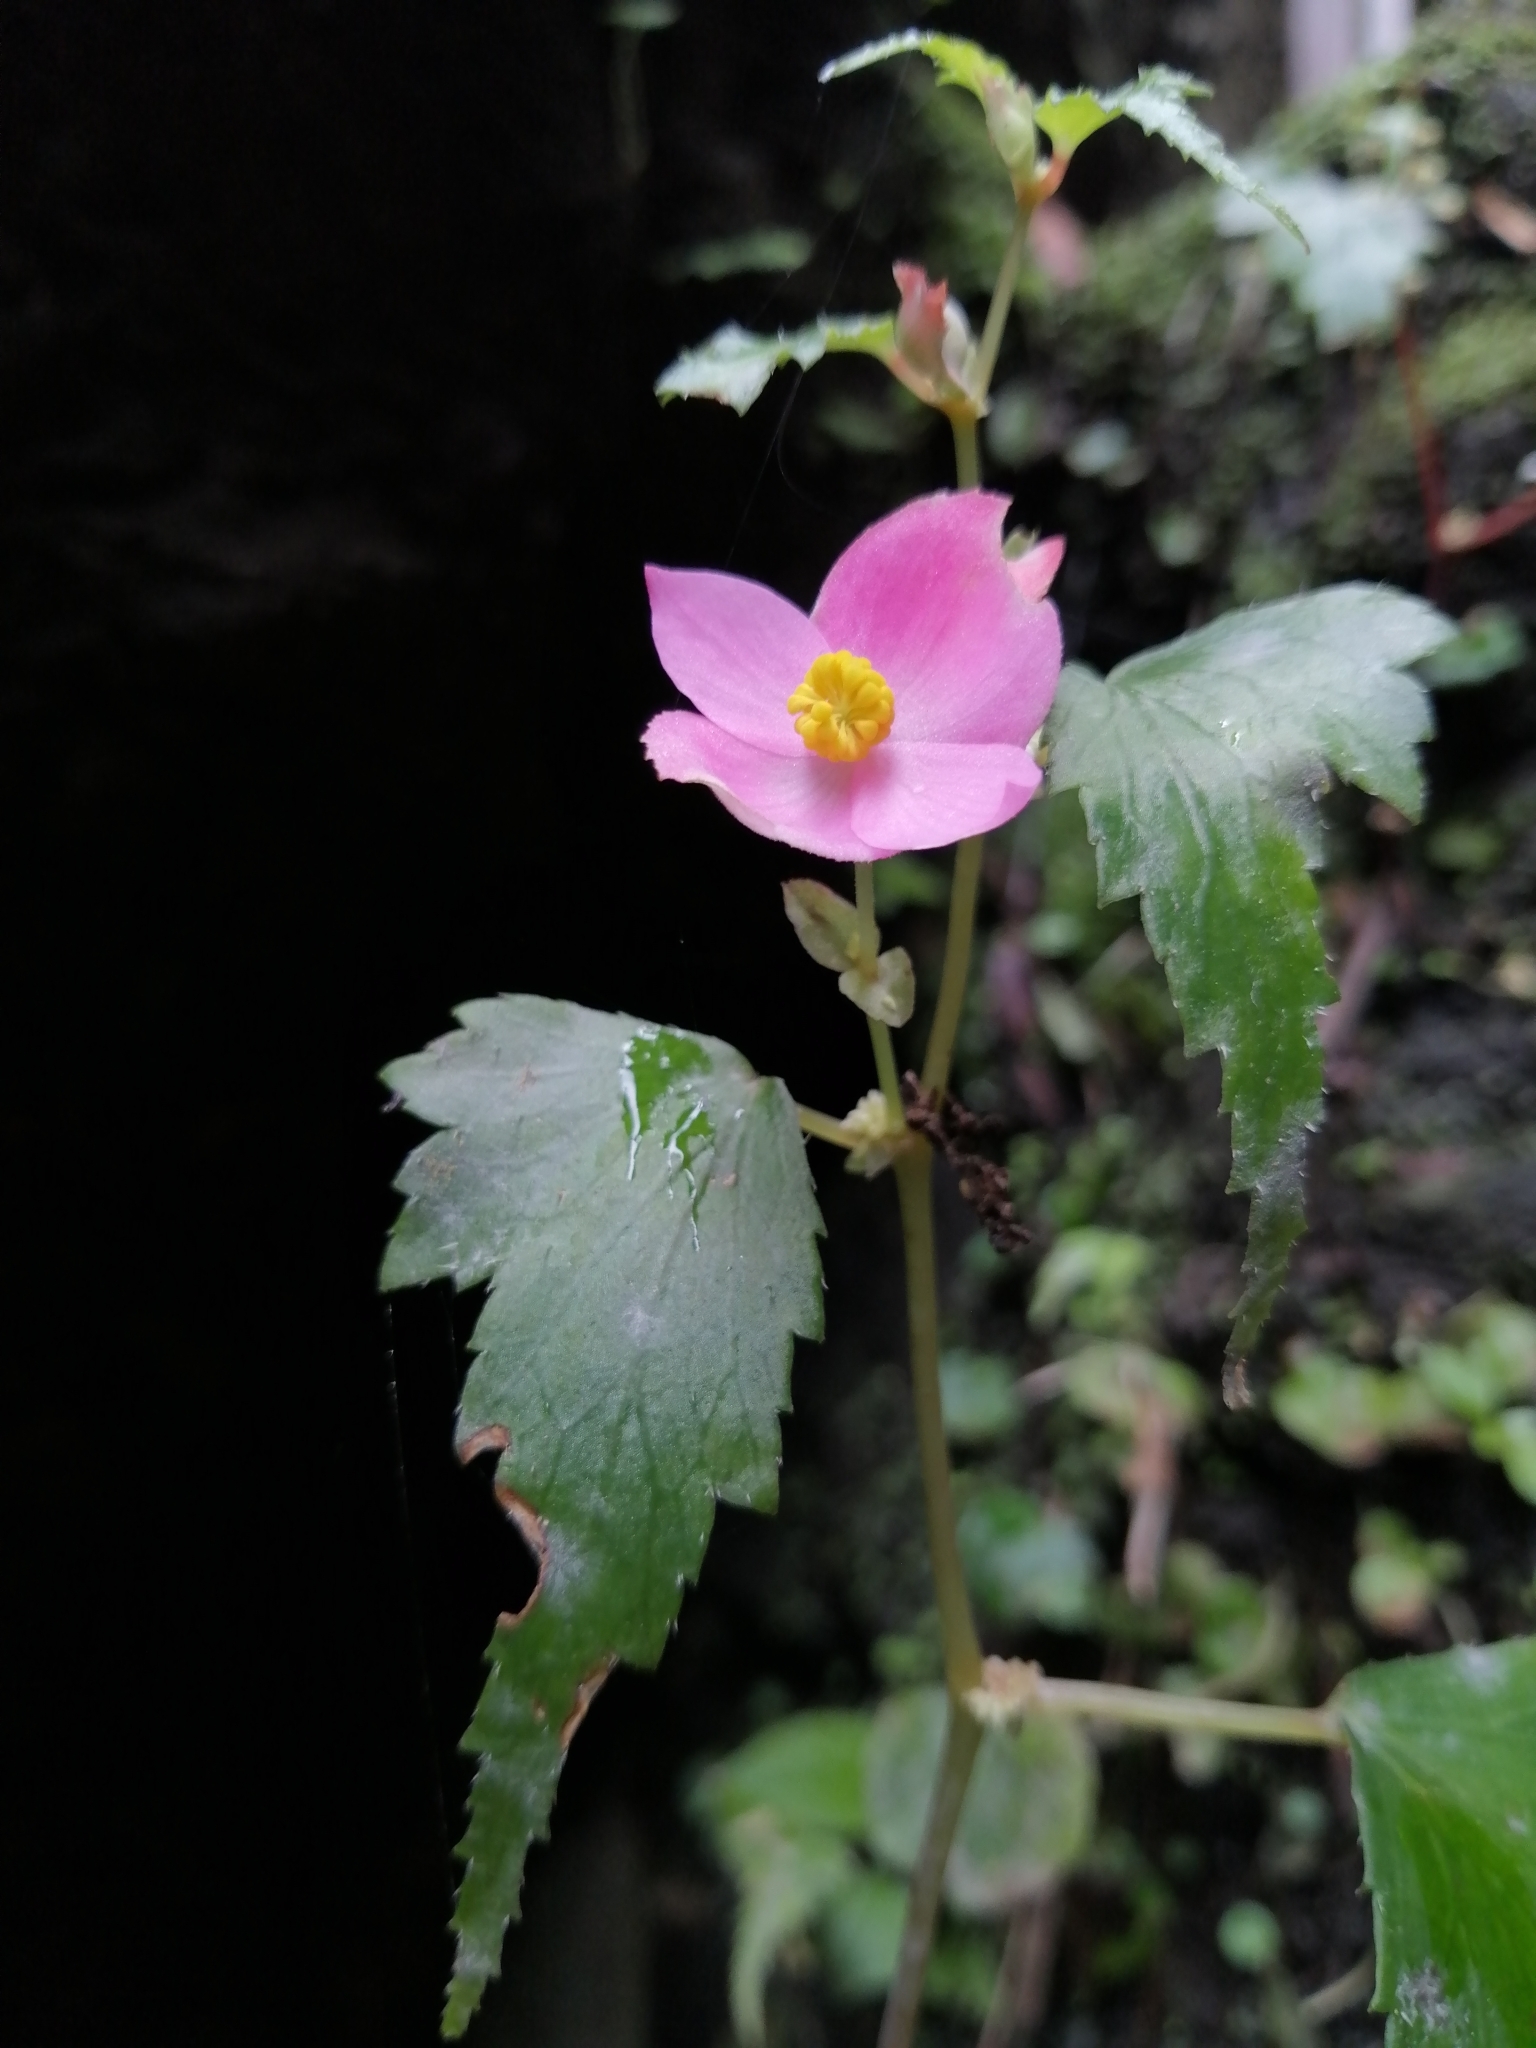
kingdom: Plantae
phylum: Tracheophyta
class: Magnoliopsida
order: Cucurbitales
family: Begoniaceae
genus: Begonia
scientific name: Begonia gracilis
